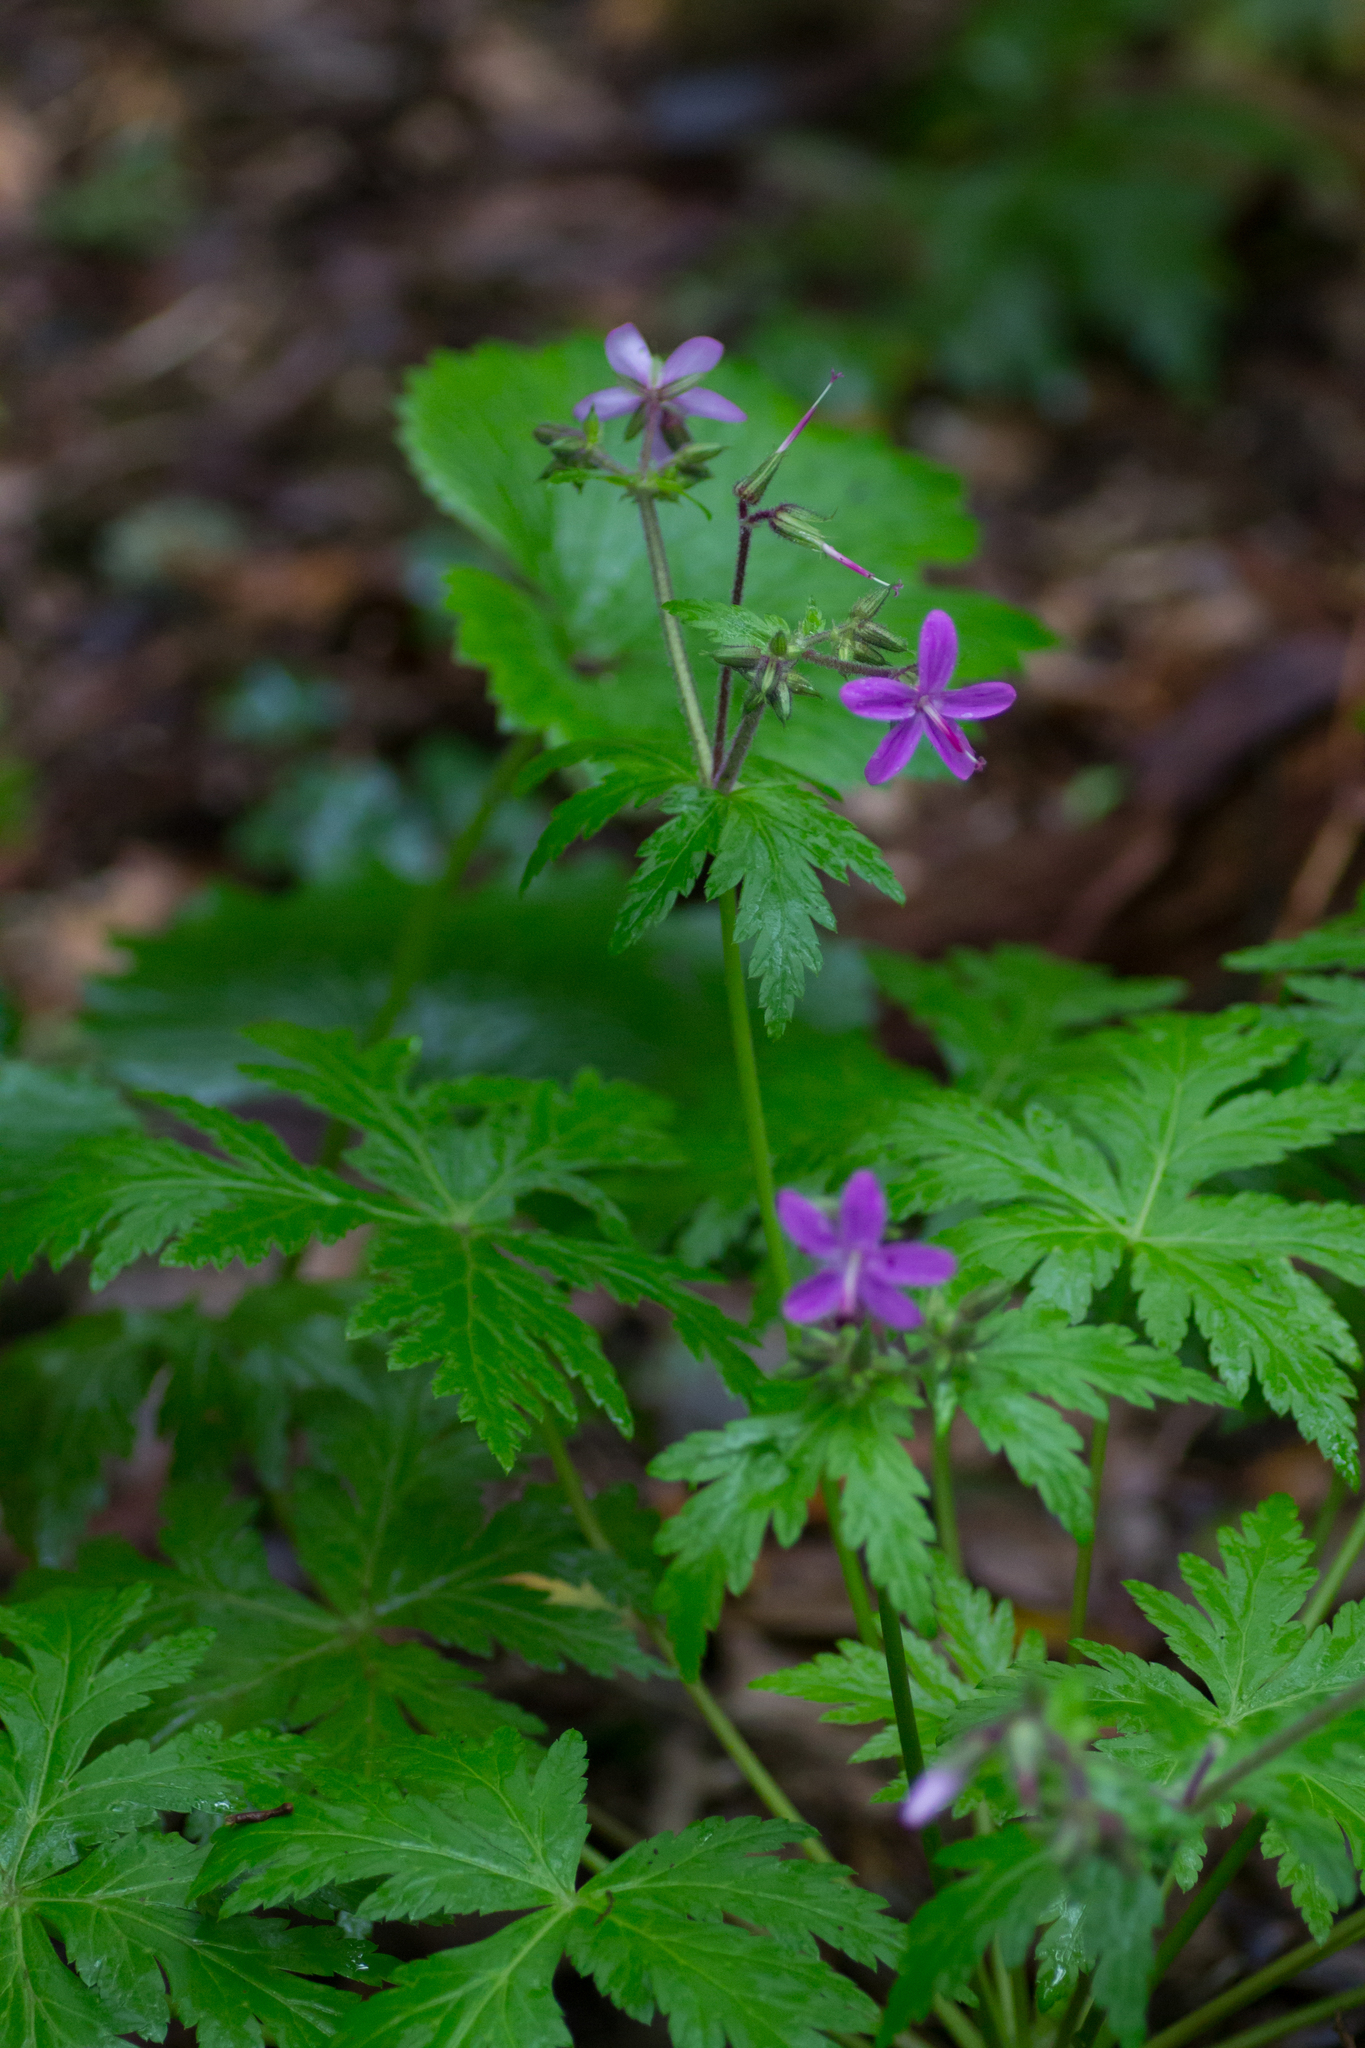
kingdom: Plantae
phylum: Tracheophyta
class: Magnoliopsida
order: Geraniales
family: Geraniaceae
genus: Geranium
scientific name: Geranium reuteri
